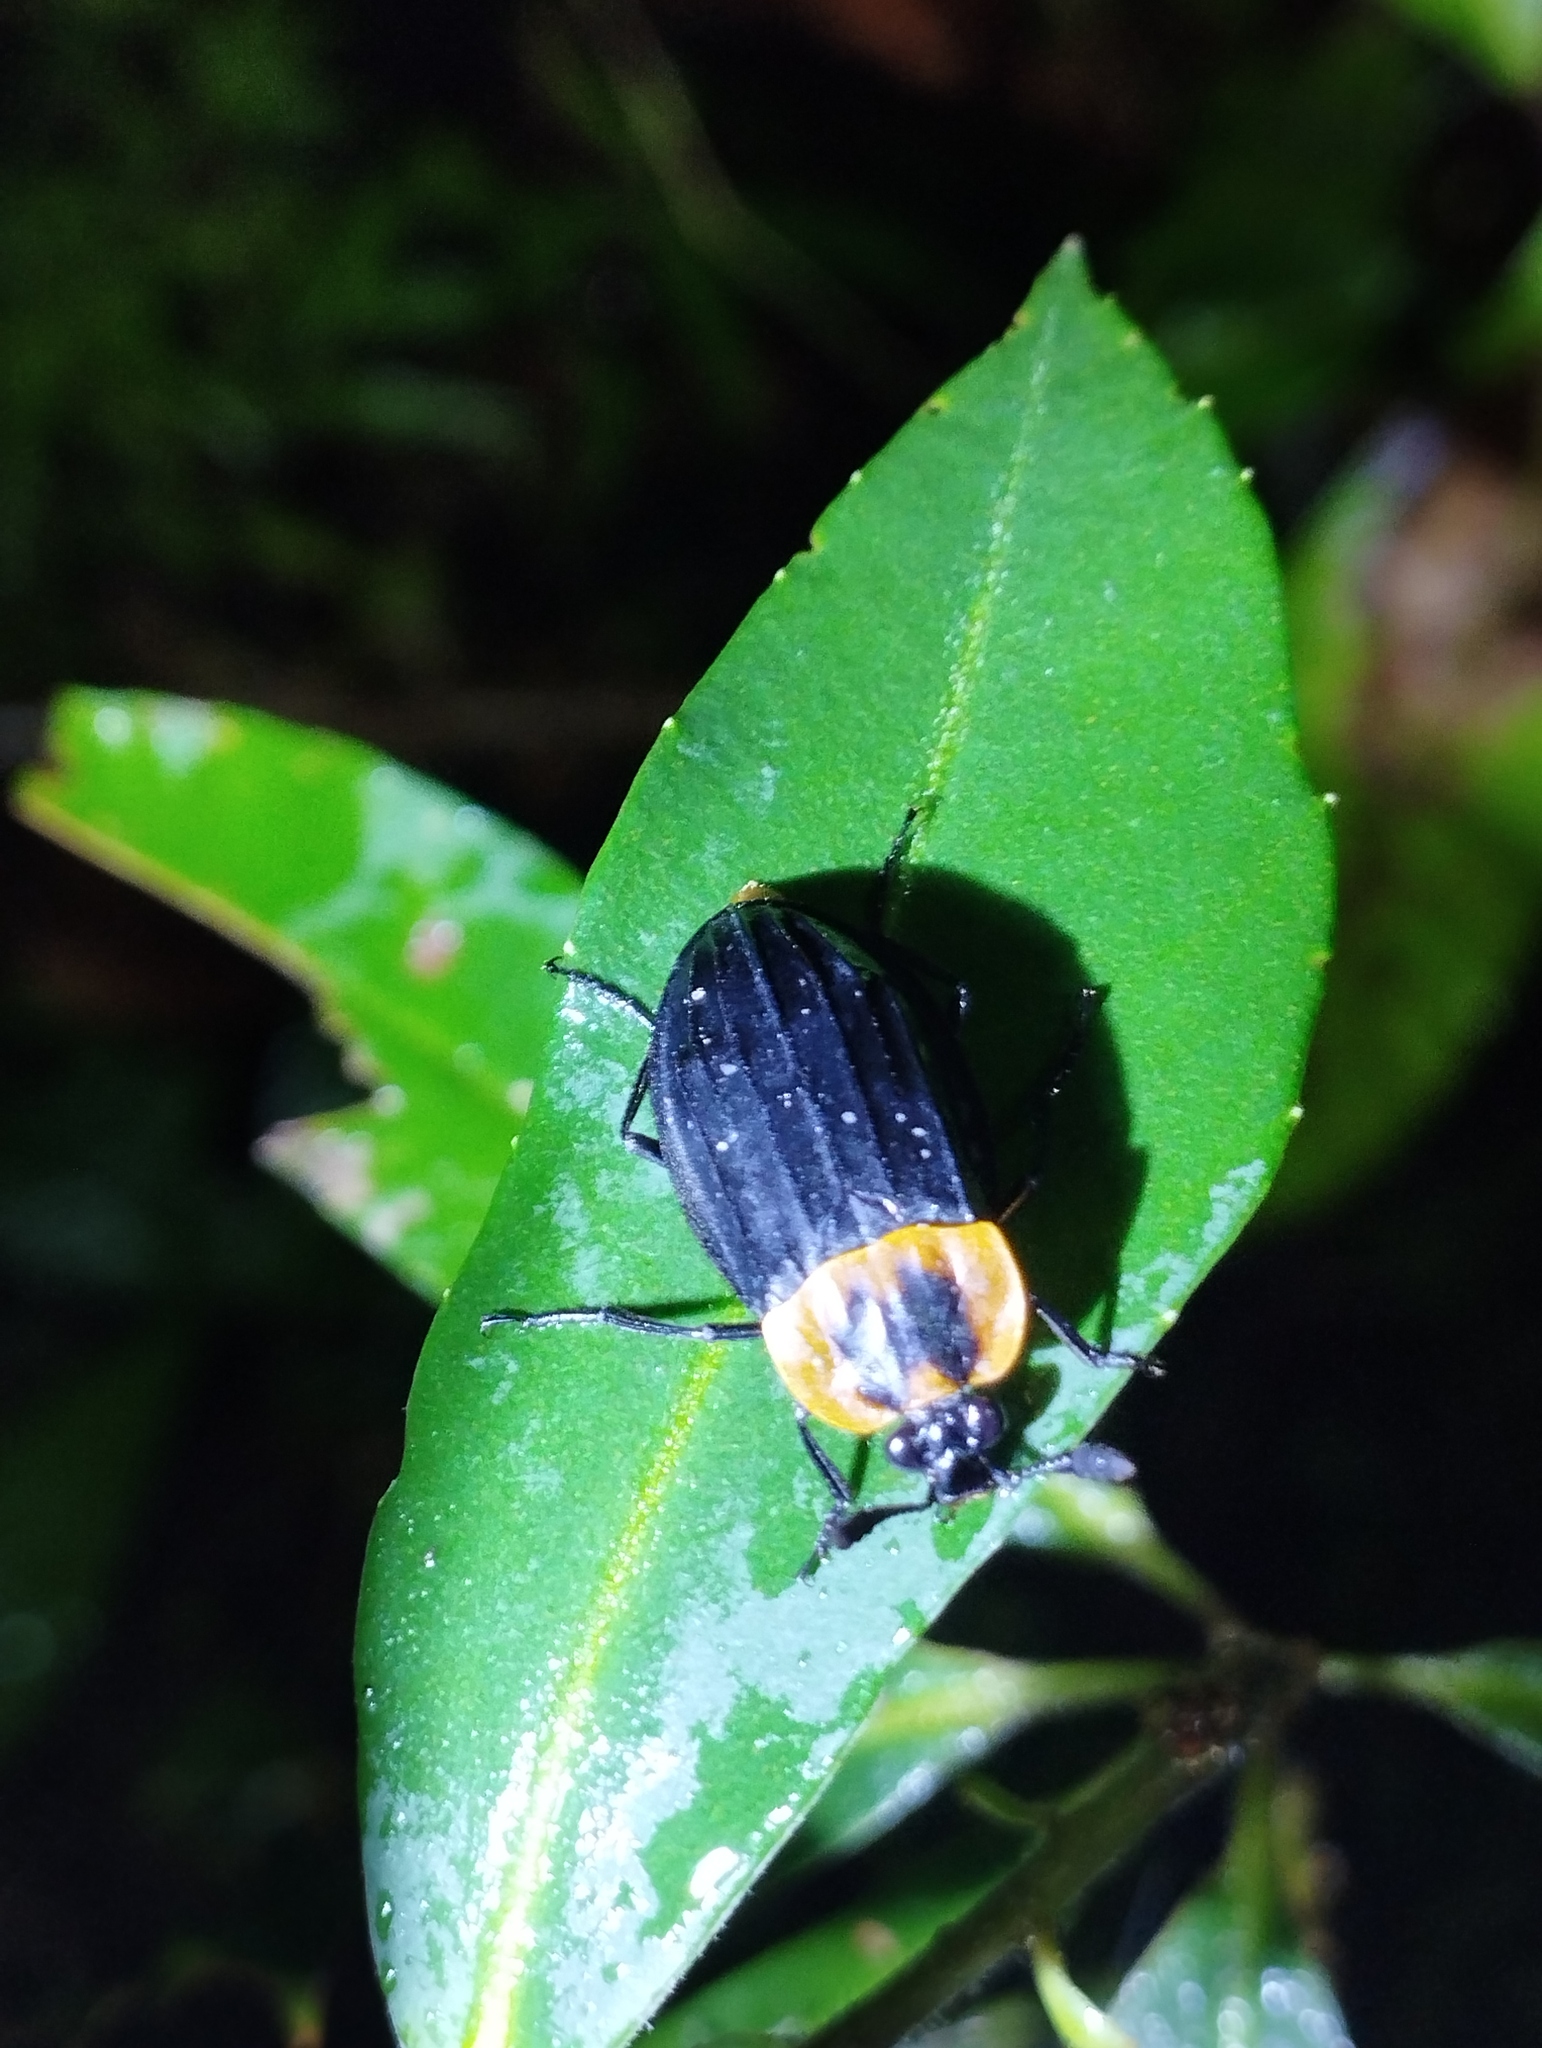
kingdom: Animalia
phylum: Arthropoda
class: Insecta
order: Coleoptera
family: Staphylinidae
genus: Oxelytrum
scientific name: Oxelytrum discicolle
